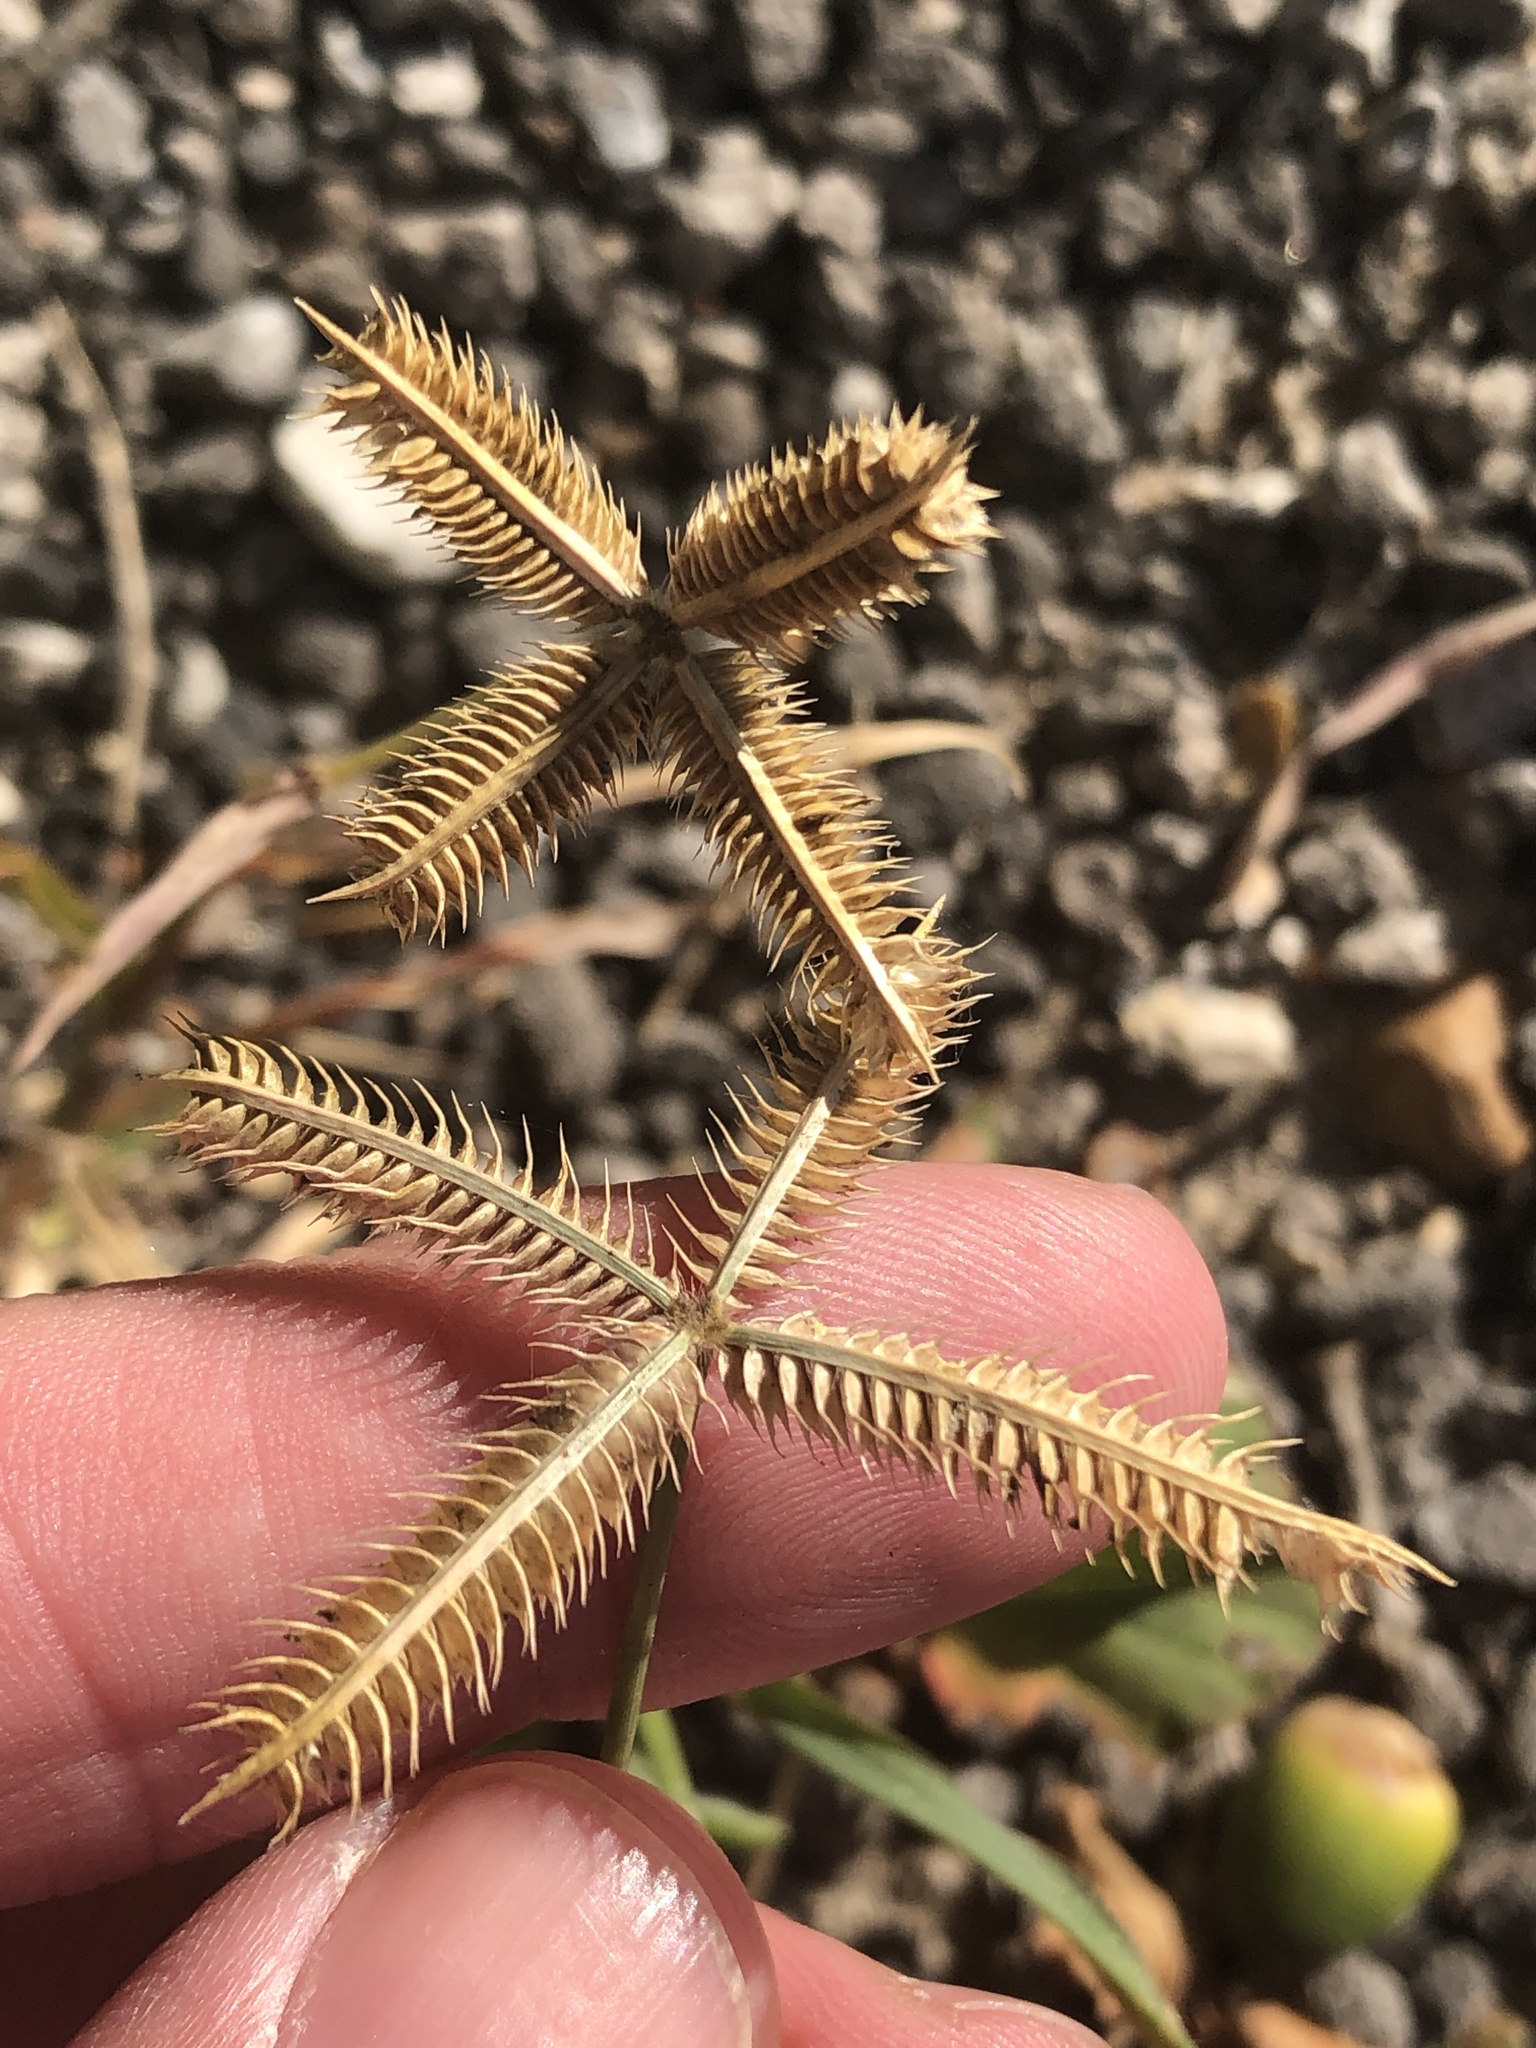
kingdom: Plantae
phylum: Tracheophyta
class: Liliopsida
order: Poales
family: Poaceae
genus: Dactyloctenium
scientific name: Dactyloctenium aegyptium
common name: Egyptian grass
